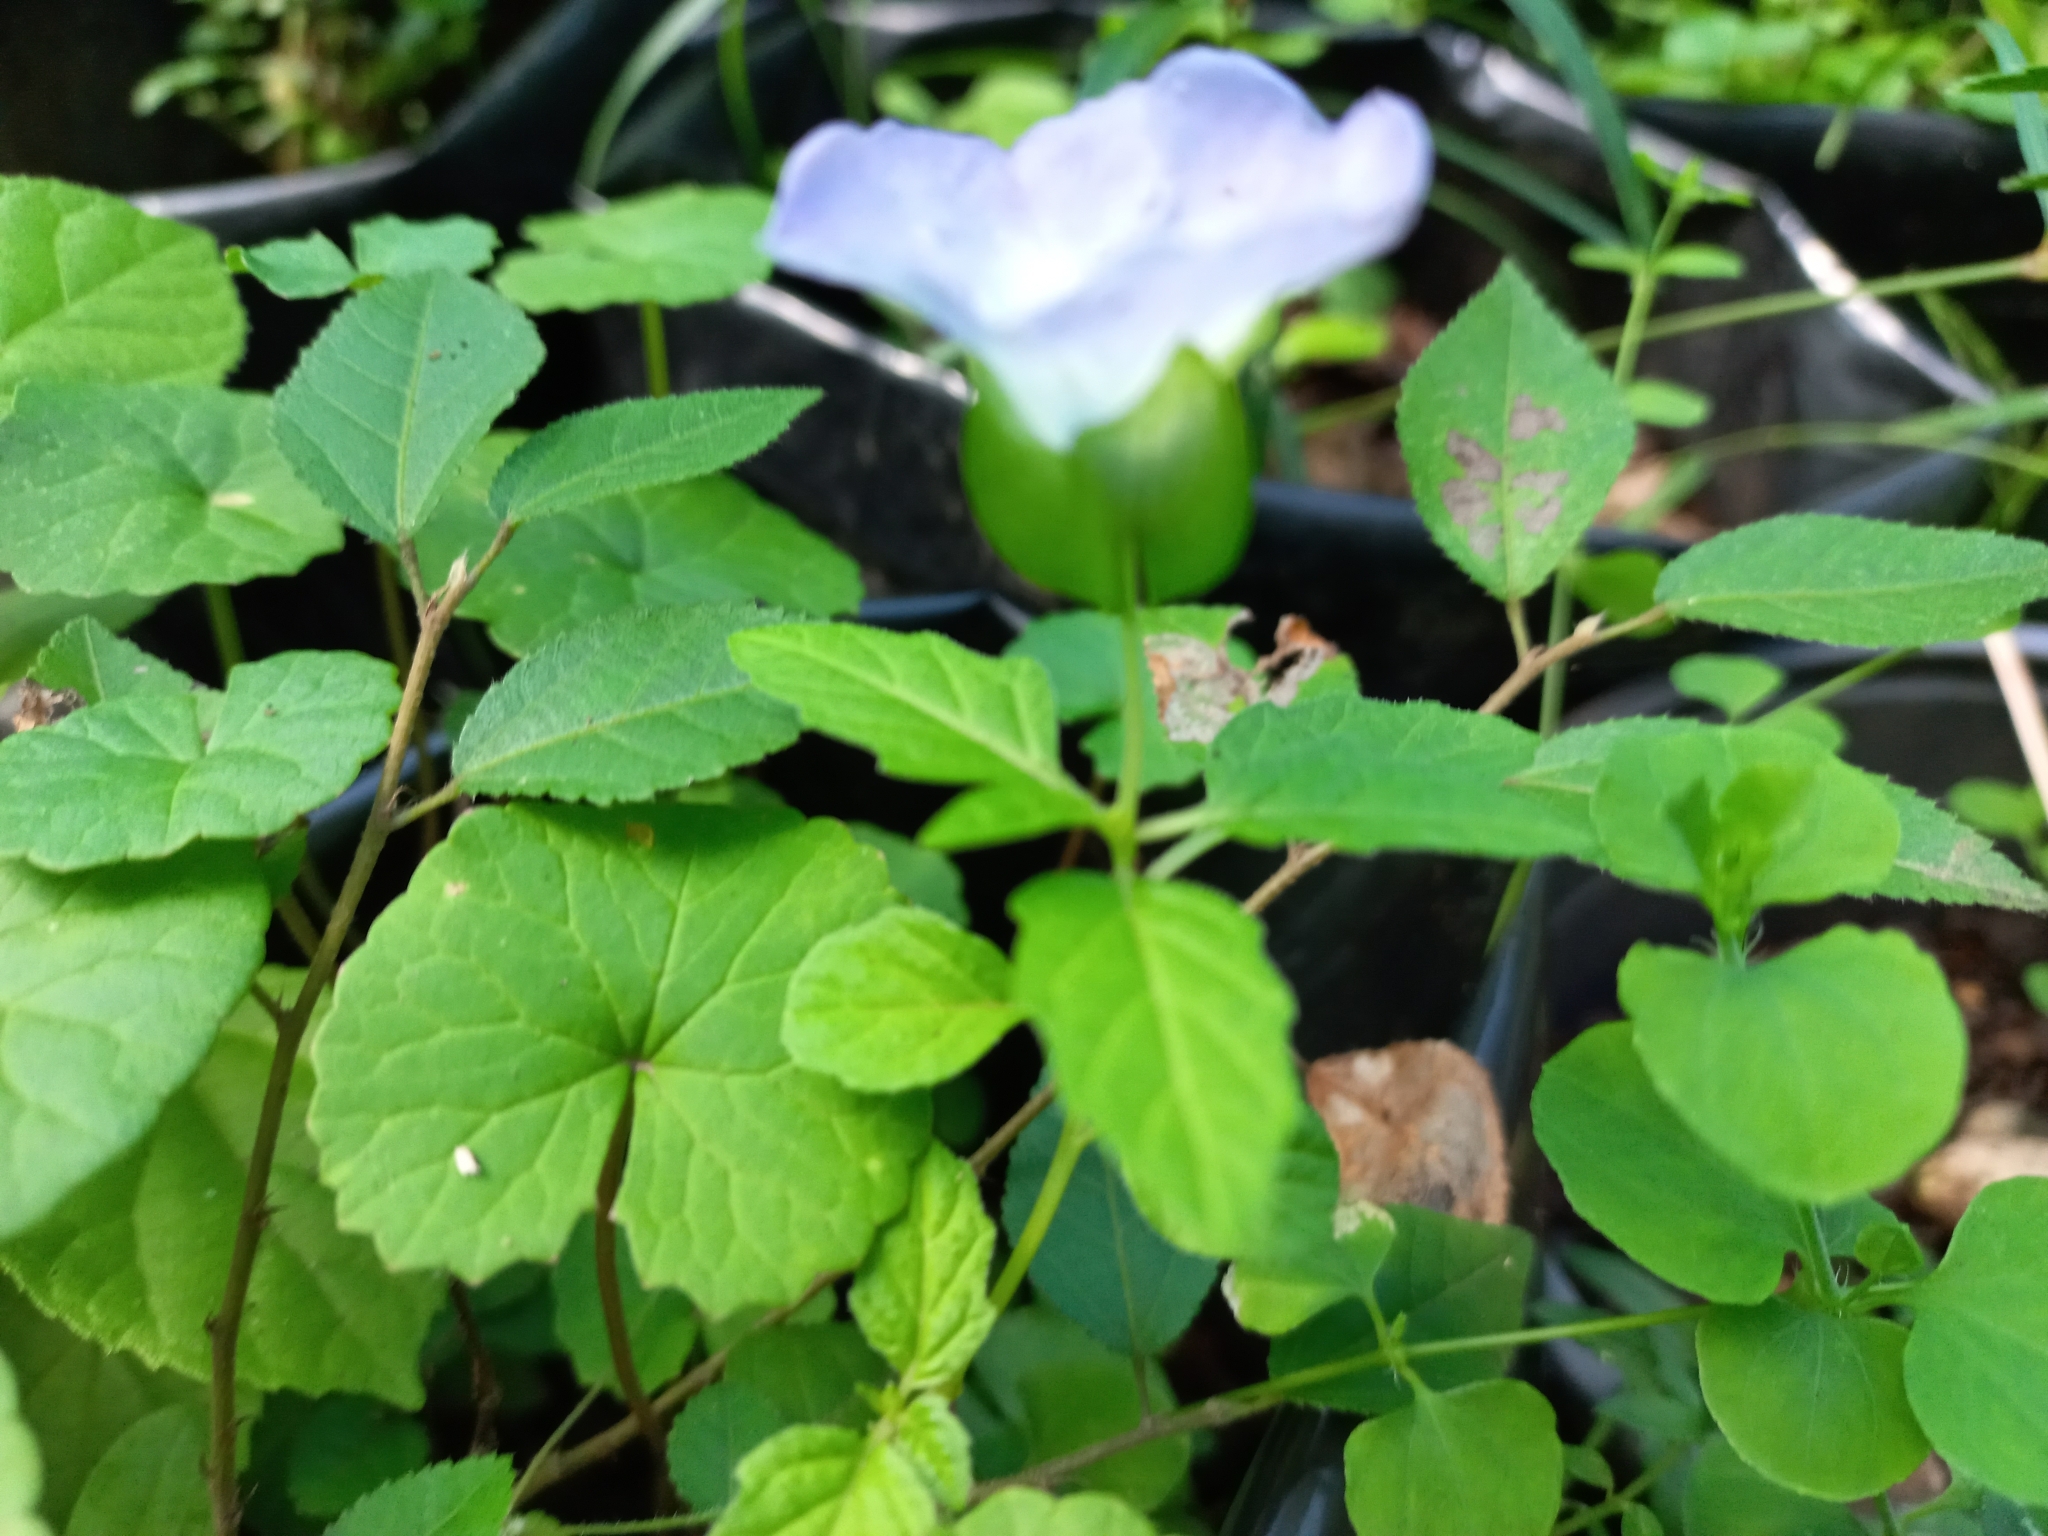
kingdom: Plantae
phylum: Tracheophyta
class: Magnoliopsida
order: Solanales
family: Solanaceae
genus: Nicandra
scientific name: Nicandra physalodes
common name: Apple-of-peru
